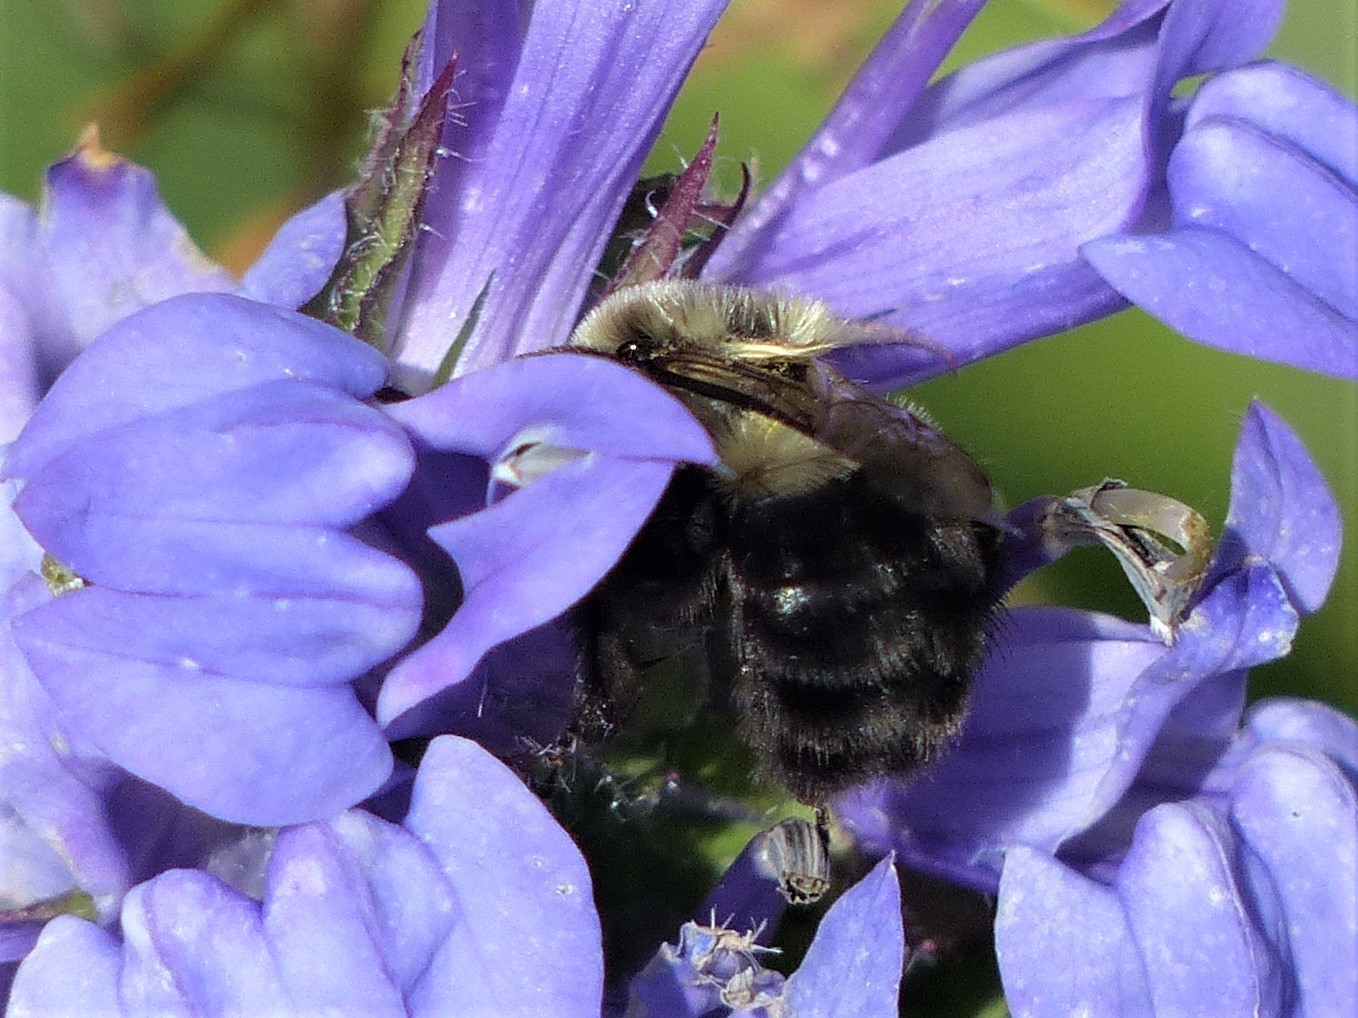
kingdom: Animalia
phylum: Arthropoda
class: Insecta
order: Hymenoptera
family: Apidae
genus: Bombus
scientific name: Bombus impatiens
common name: Common eastern bumble bee
